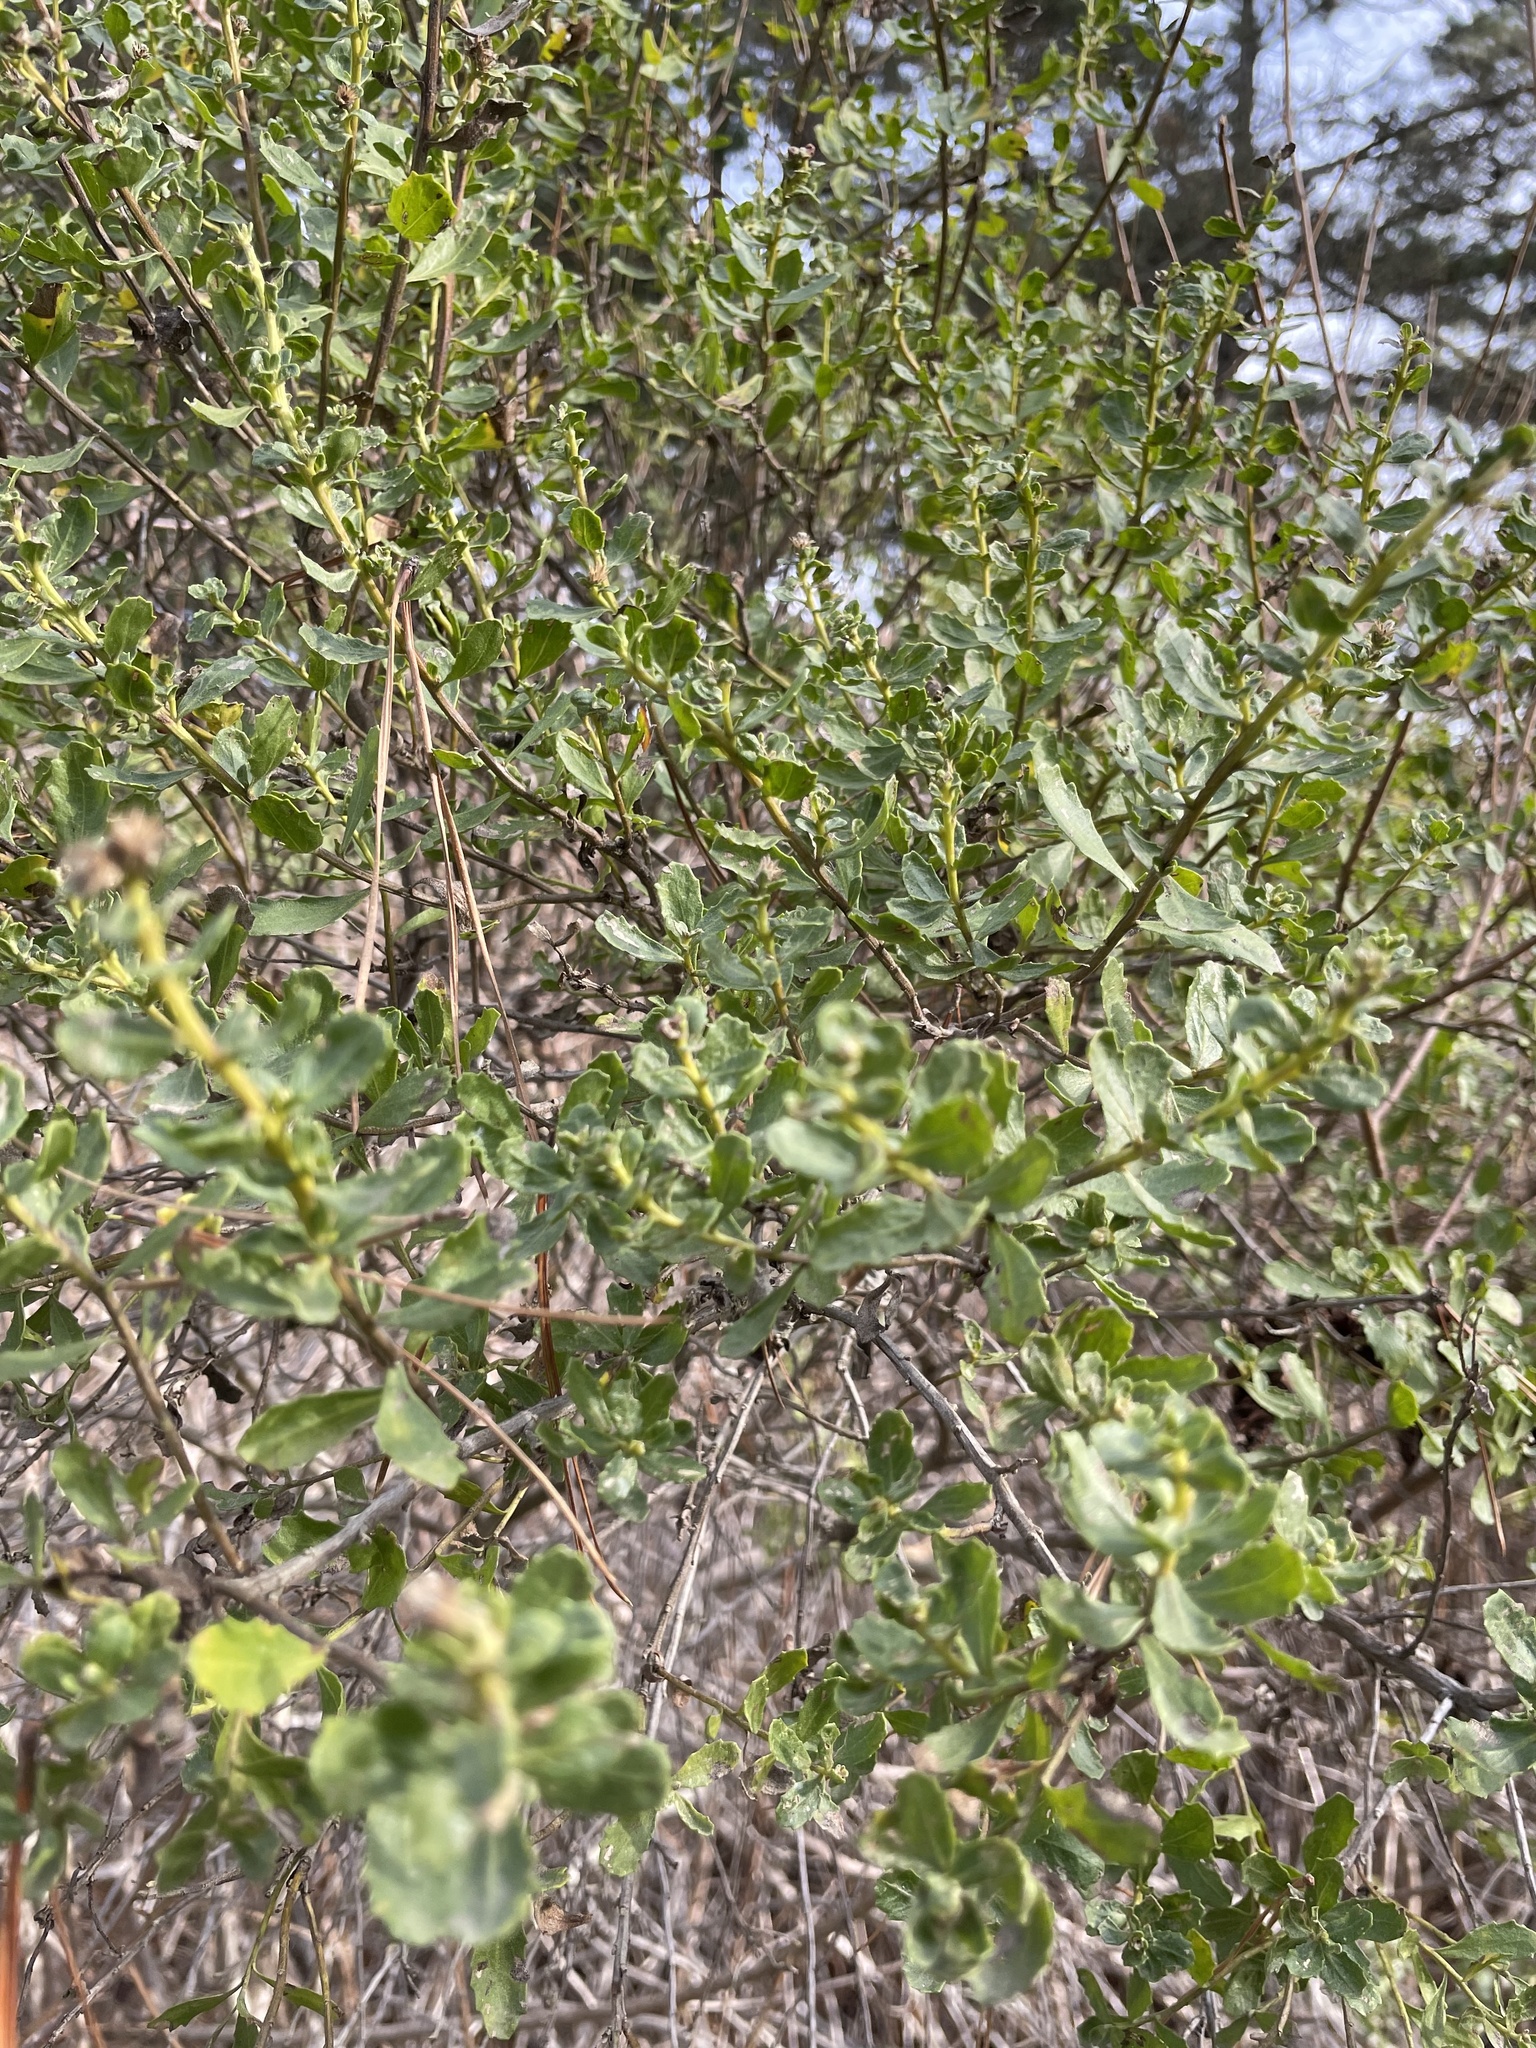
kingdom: Plantae
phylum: Tracheophyta
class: Magnoliopsida
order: Asterales
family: Asteraceae
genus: Baccharis
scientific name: Baccharis pilularis
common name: Coyotebrush
